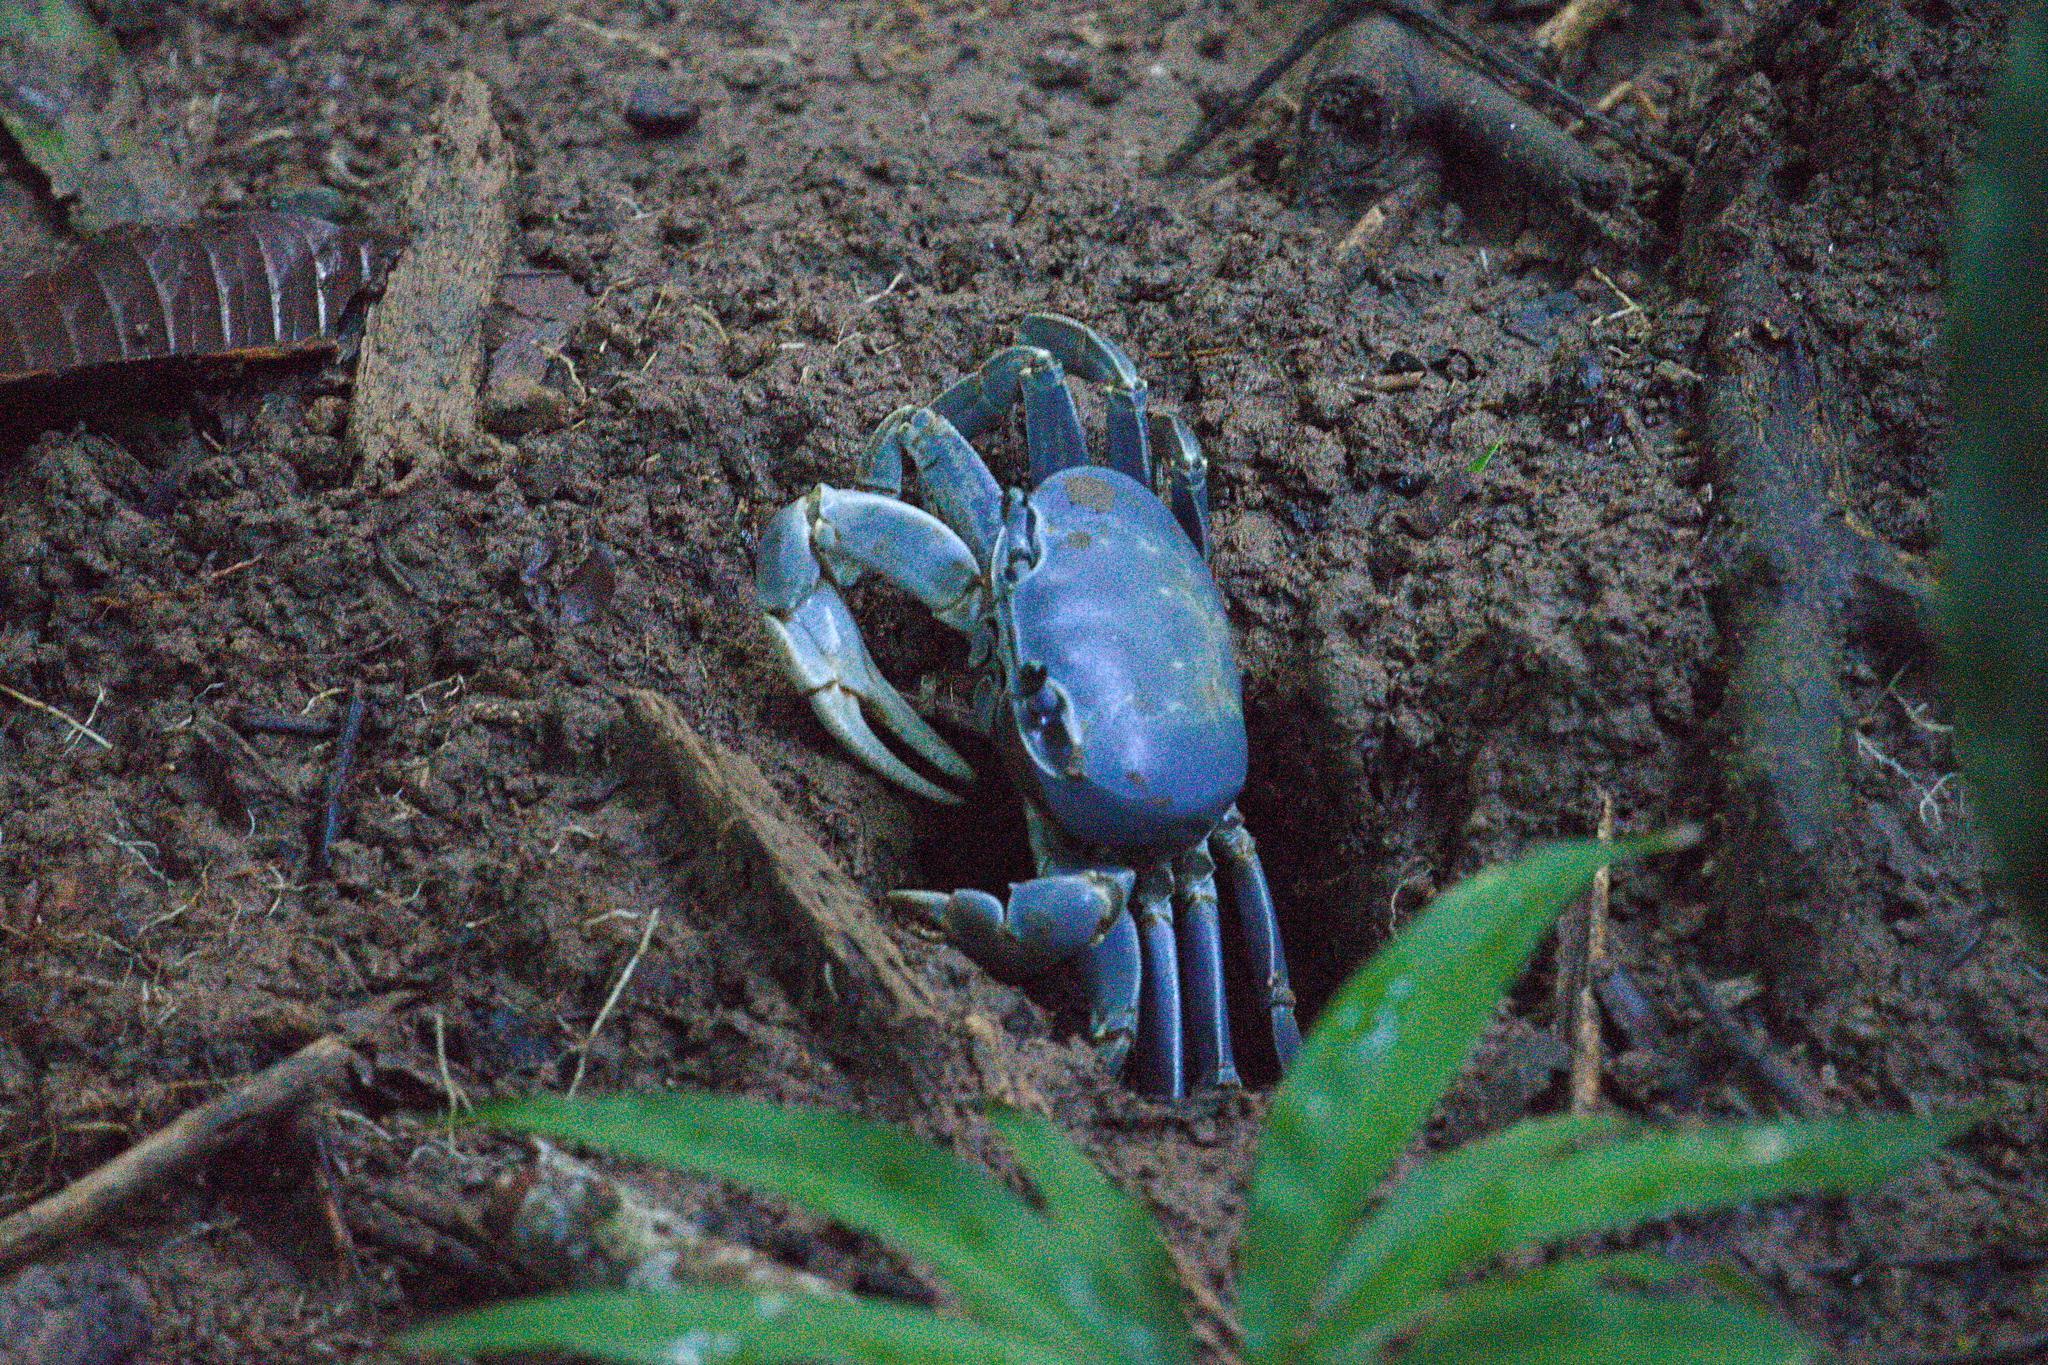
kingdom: Animalia
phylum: Arthropoda
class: Malacostraca
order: Decapoda
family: Gecarcinidae
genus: Cardisoma
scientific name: Cardisoma guanhumi
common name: Great land crab
